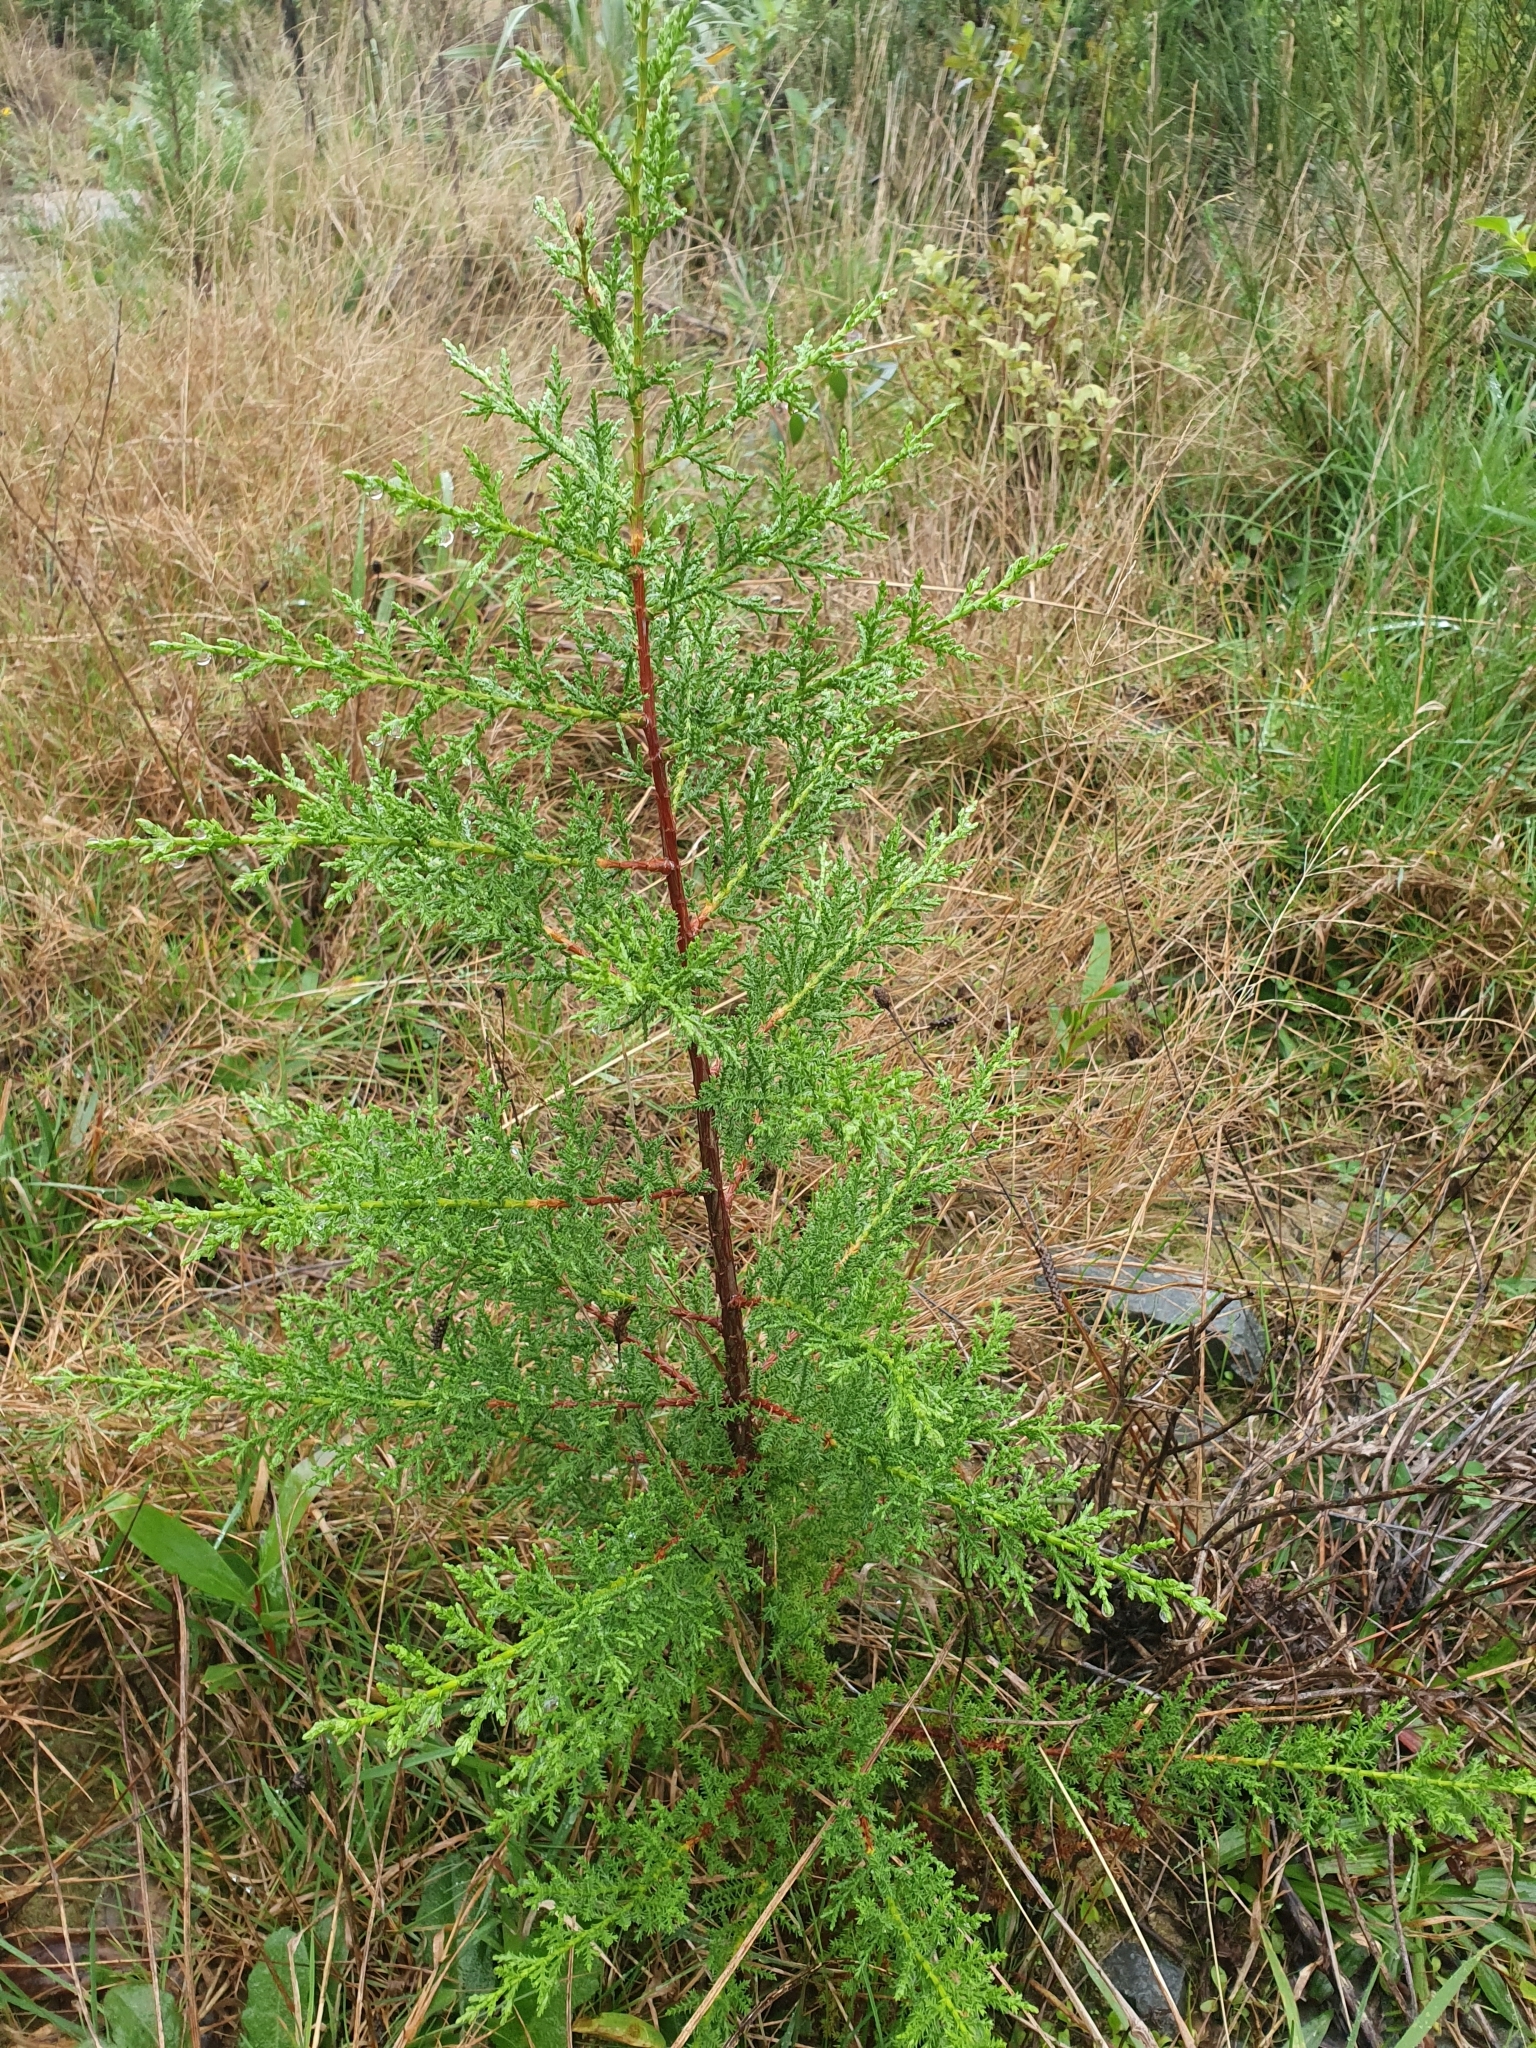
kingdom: Plantae
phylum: Tracheophyta
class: Pinopsida
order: Pinales
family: Cupressaceae
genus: Cupressus
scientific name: Cupressus macrocarpa
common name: Monterey cypress
